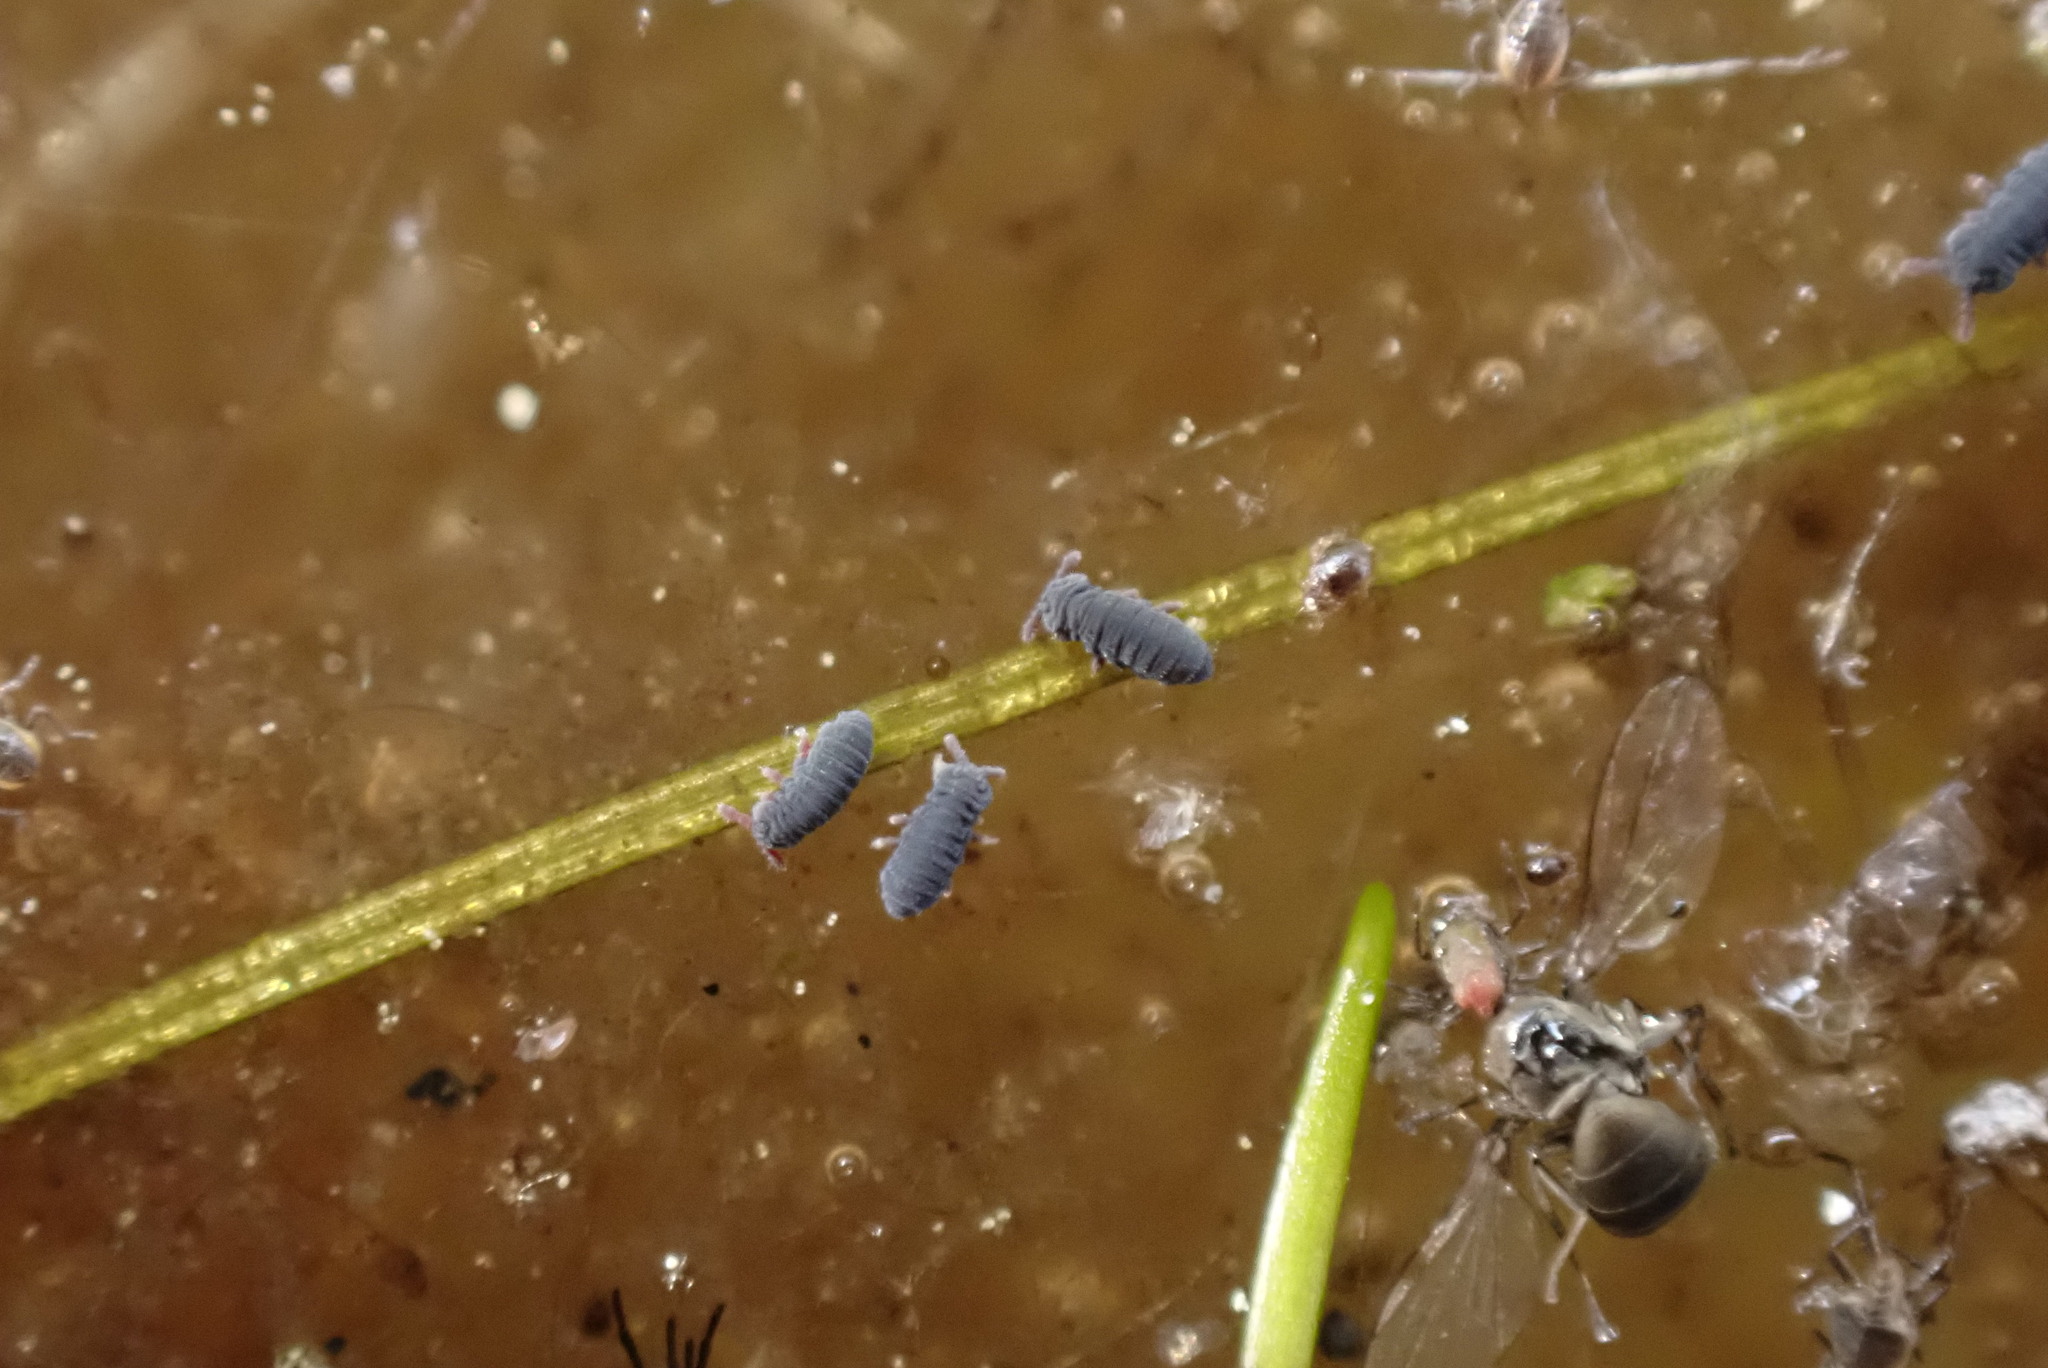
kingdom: Animalia
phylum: Arthropoda
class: Collembola
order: Poduromorpha
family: Poduridae
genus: Podura
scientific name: Podura aquatica
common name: Water springtail
